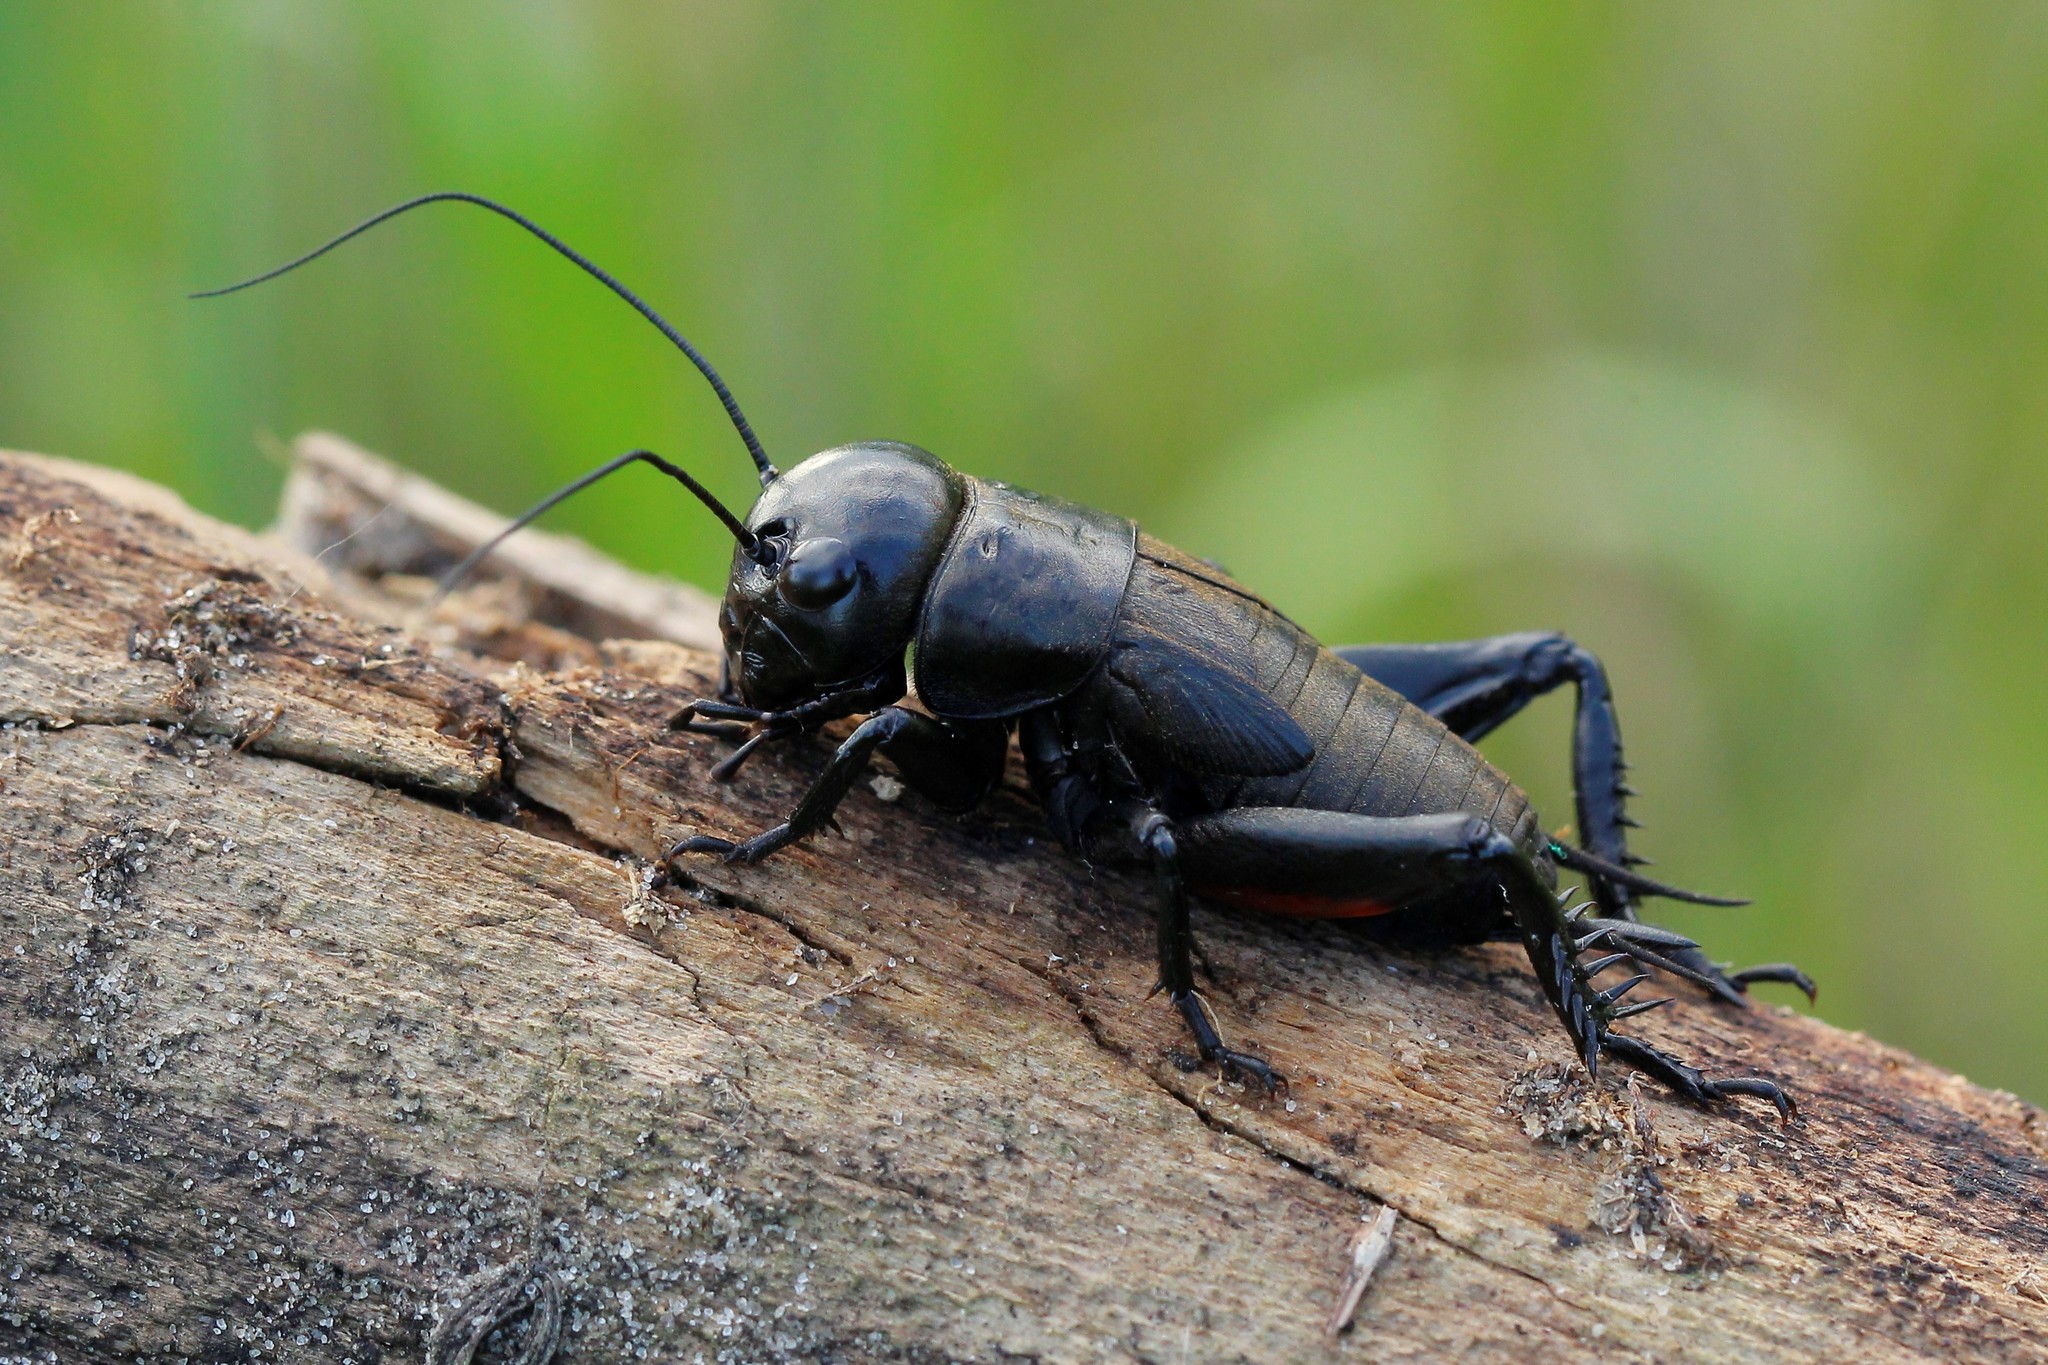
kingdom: Animalia
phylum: Arthropoda
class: Insecta
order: Orthoptera
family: Gryllidae
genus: Gryllus
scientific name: Gryllus campestris
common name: Field cricket
